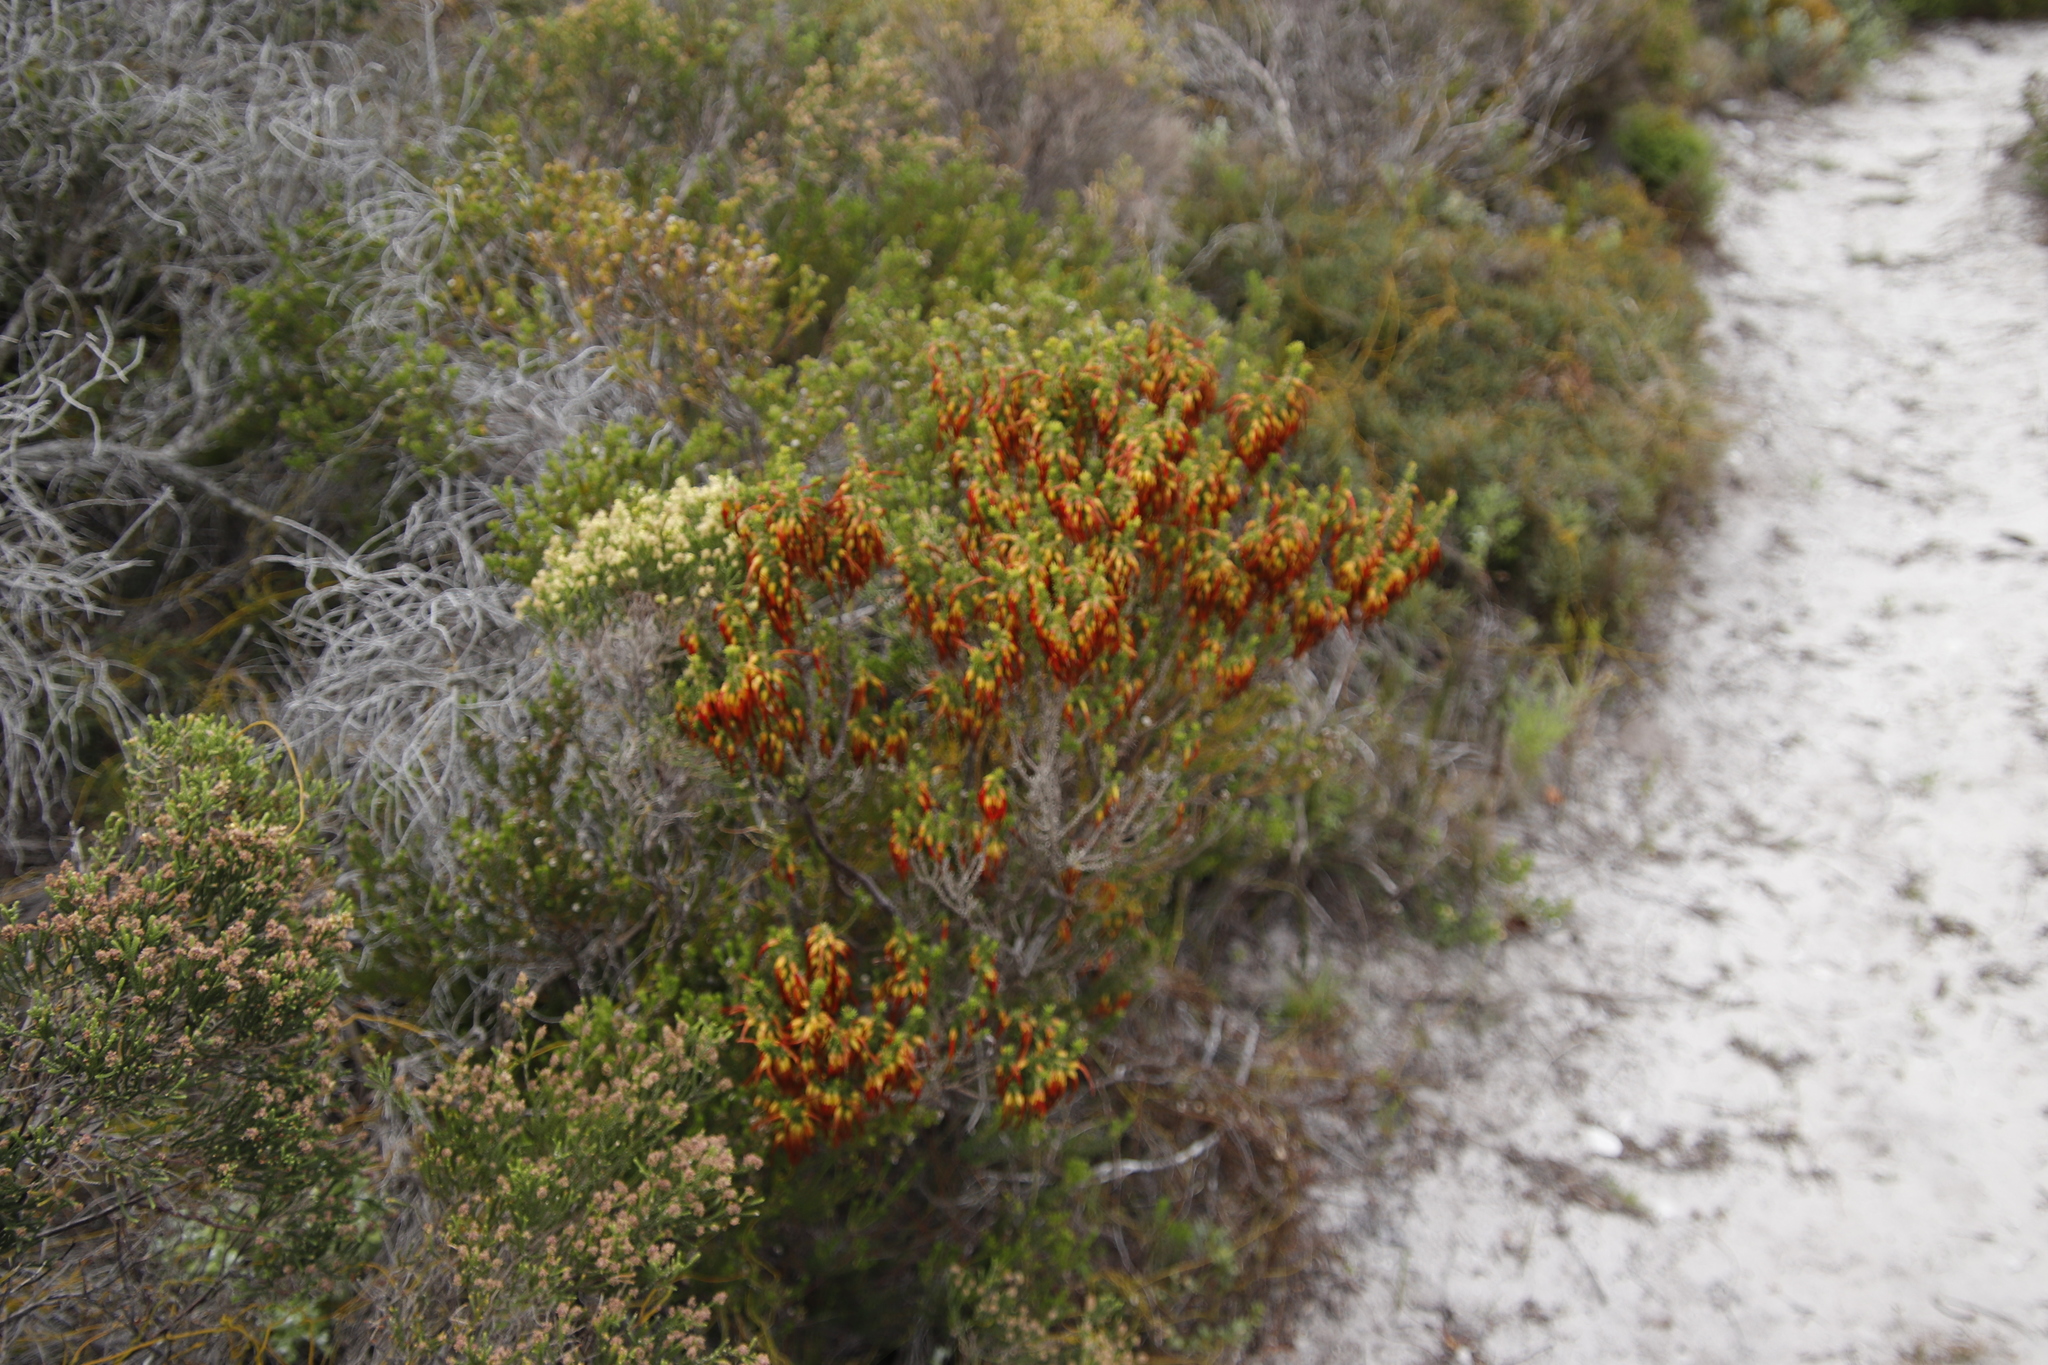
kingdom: Plantae
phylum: Tracheophyta
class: Magnoliopsida
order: Ericales
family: Ericaceae
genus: Erica
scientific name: Erica coccinea
